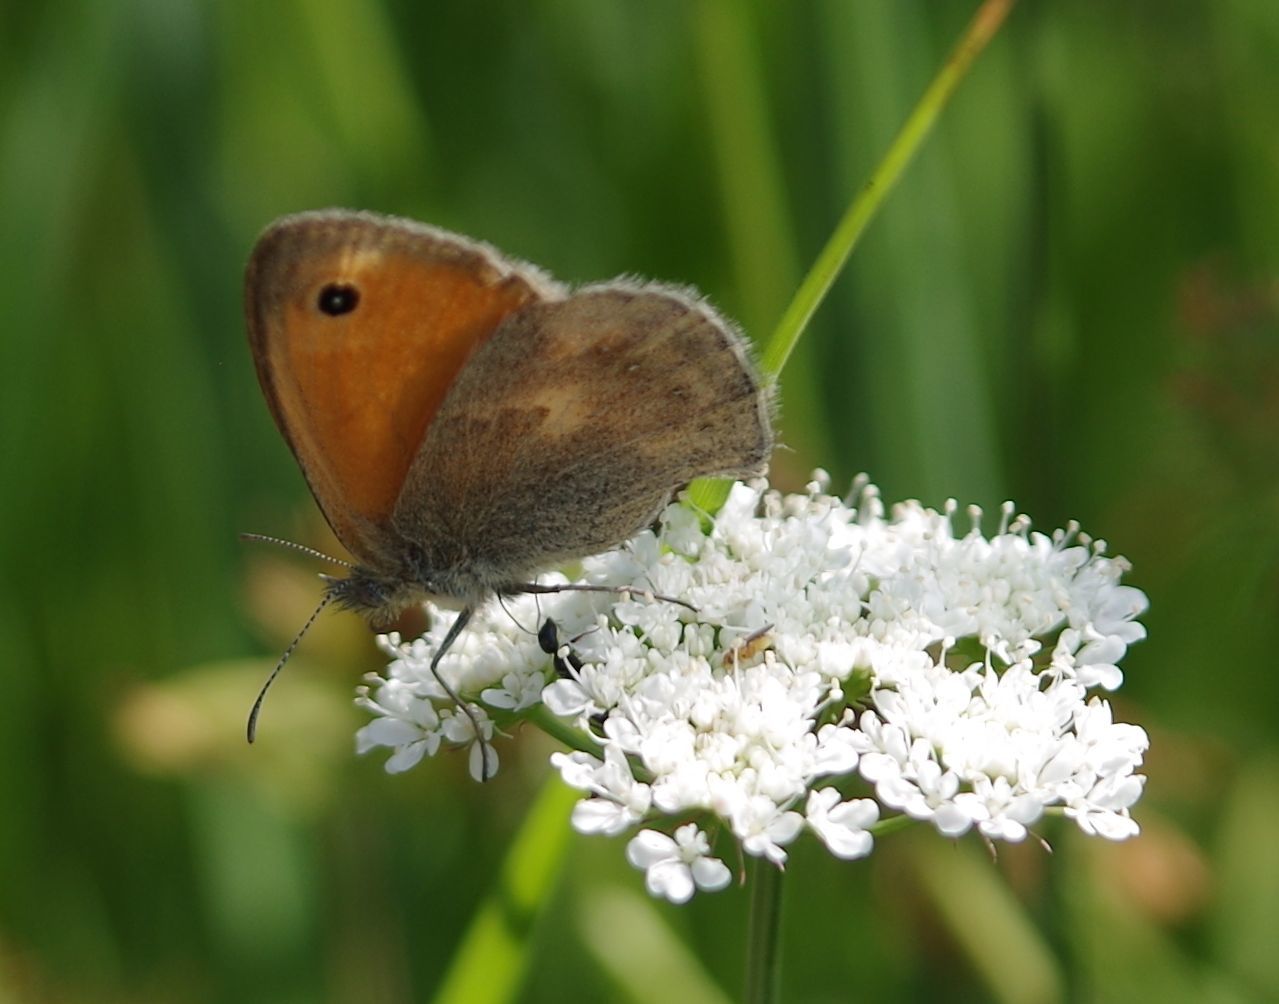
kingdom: Animalia
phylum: Arthropoda
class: Insecta
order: Lepidoptera
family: Nymphalidae
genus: Coenonympha
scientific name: Coenonympha pamphilus
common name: Small heath
